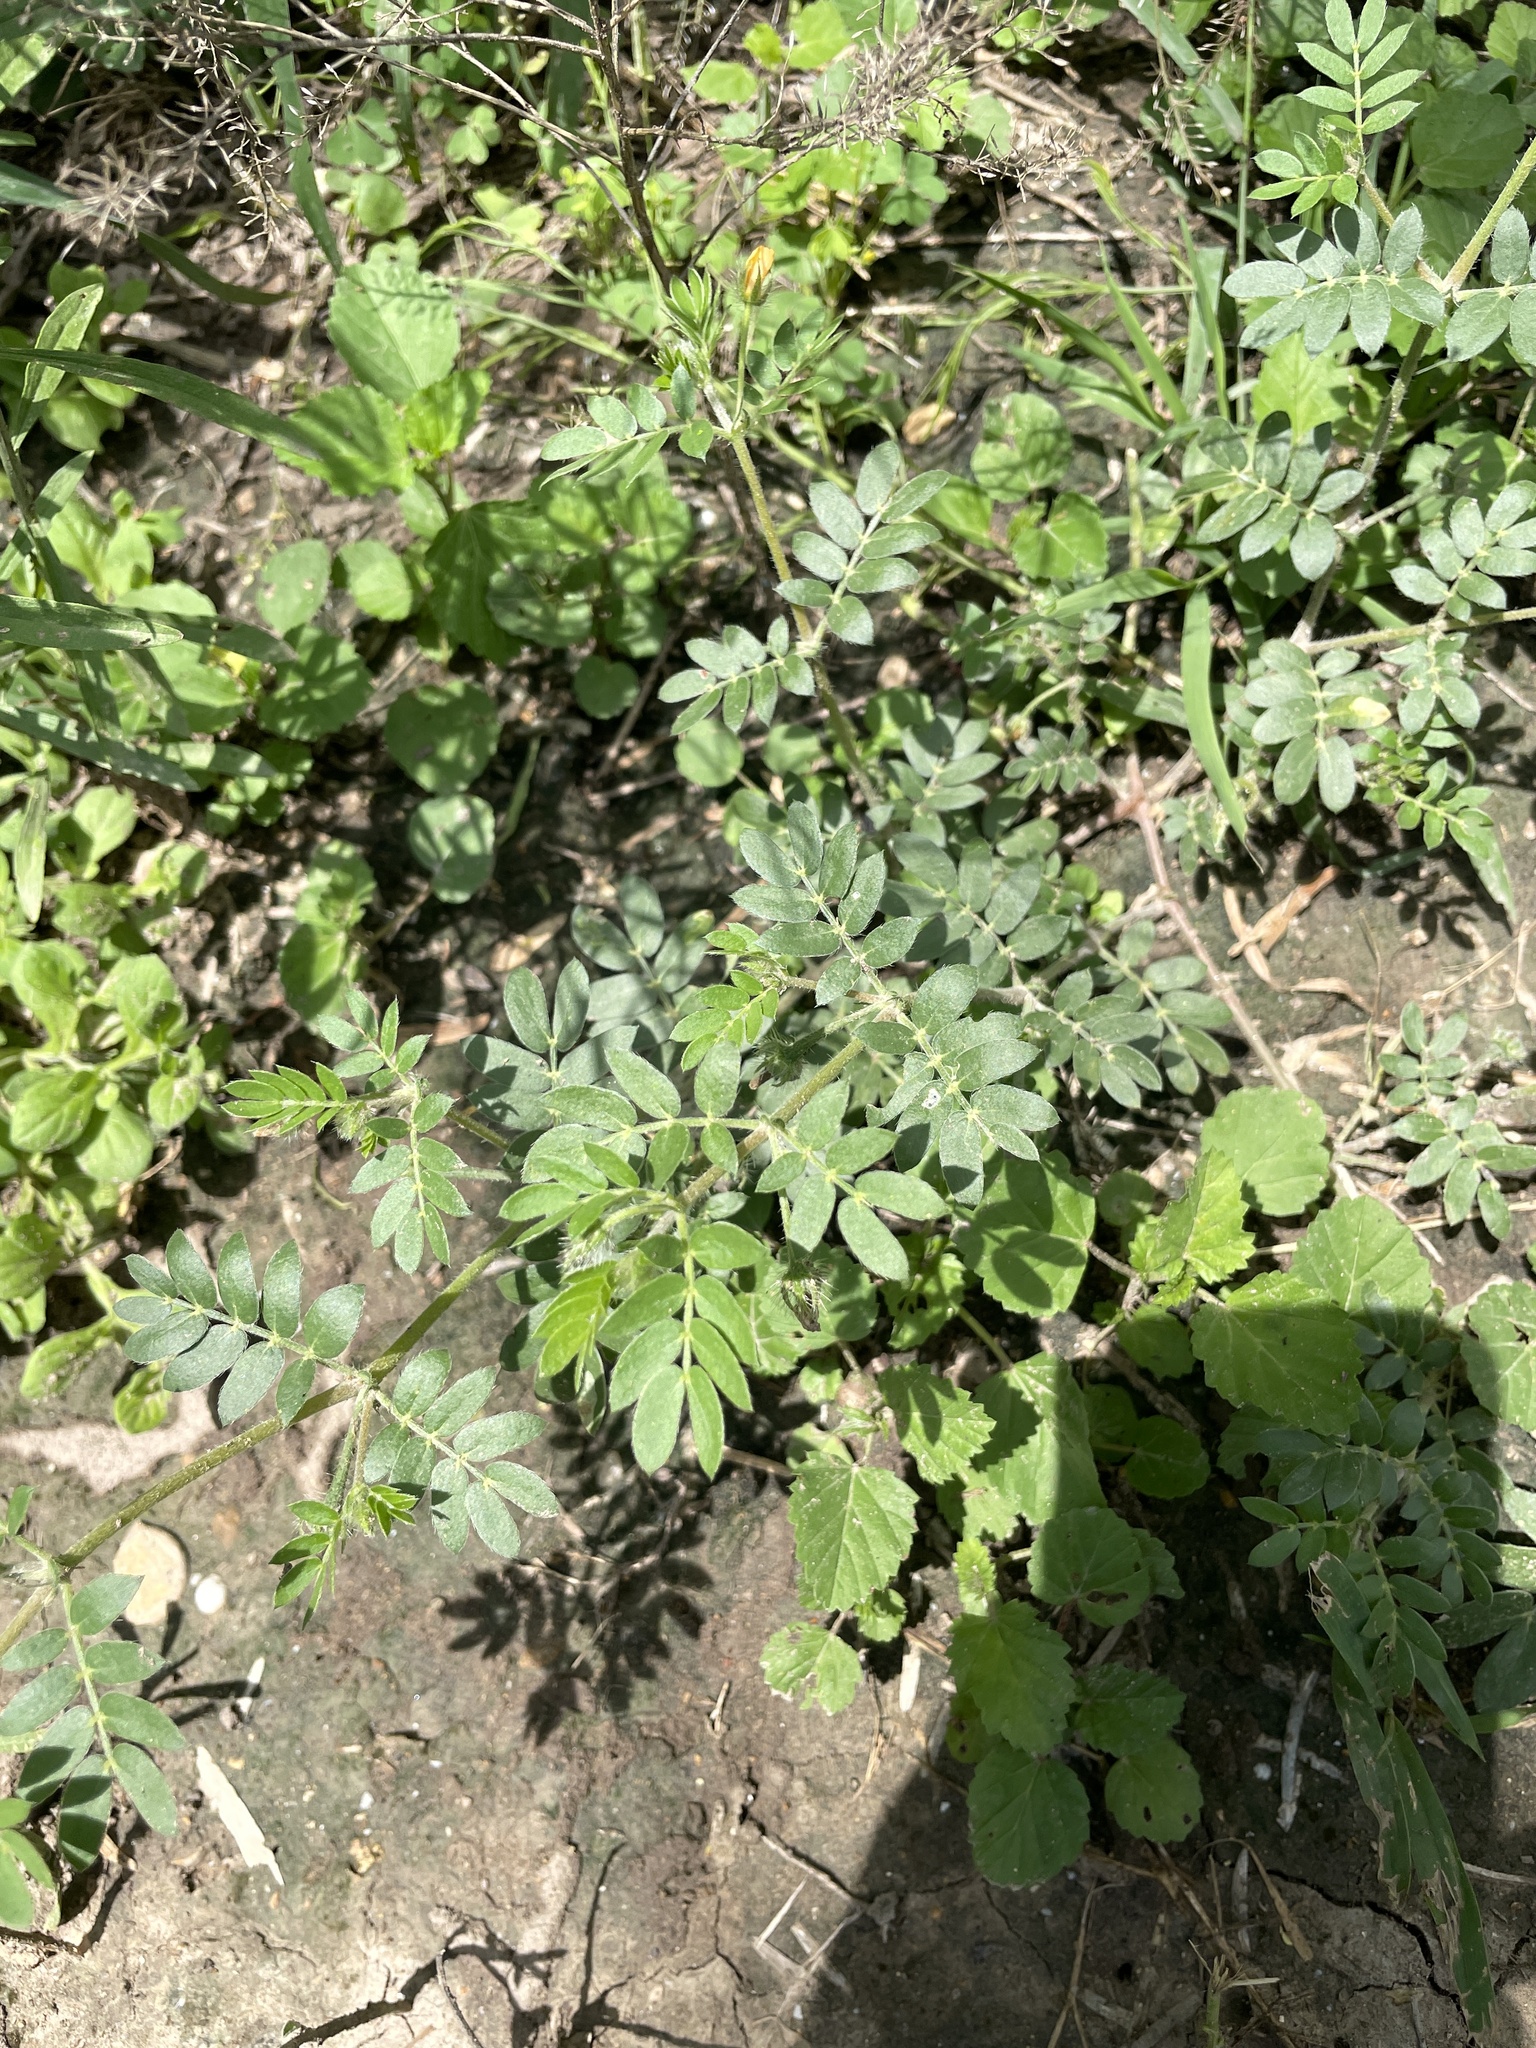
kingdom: Plantae
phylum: Tracheophyta
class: Magnoliopsida
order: Zygophyllales
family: Zygophyllaceae
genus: Kallstroemia
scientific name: Kallstroemia parviflora
